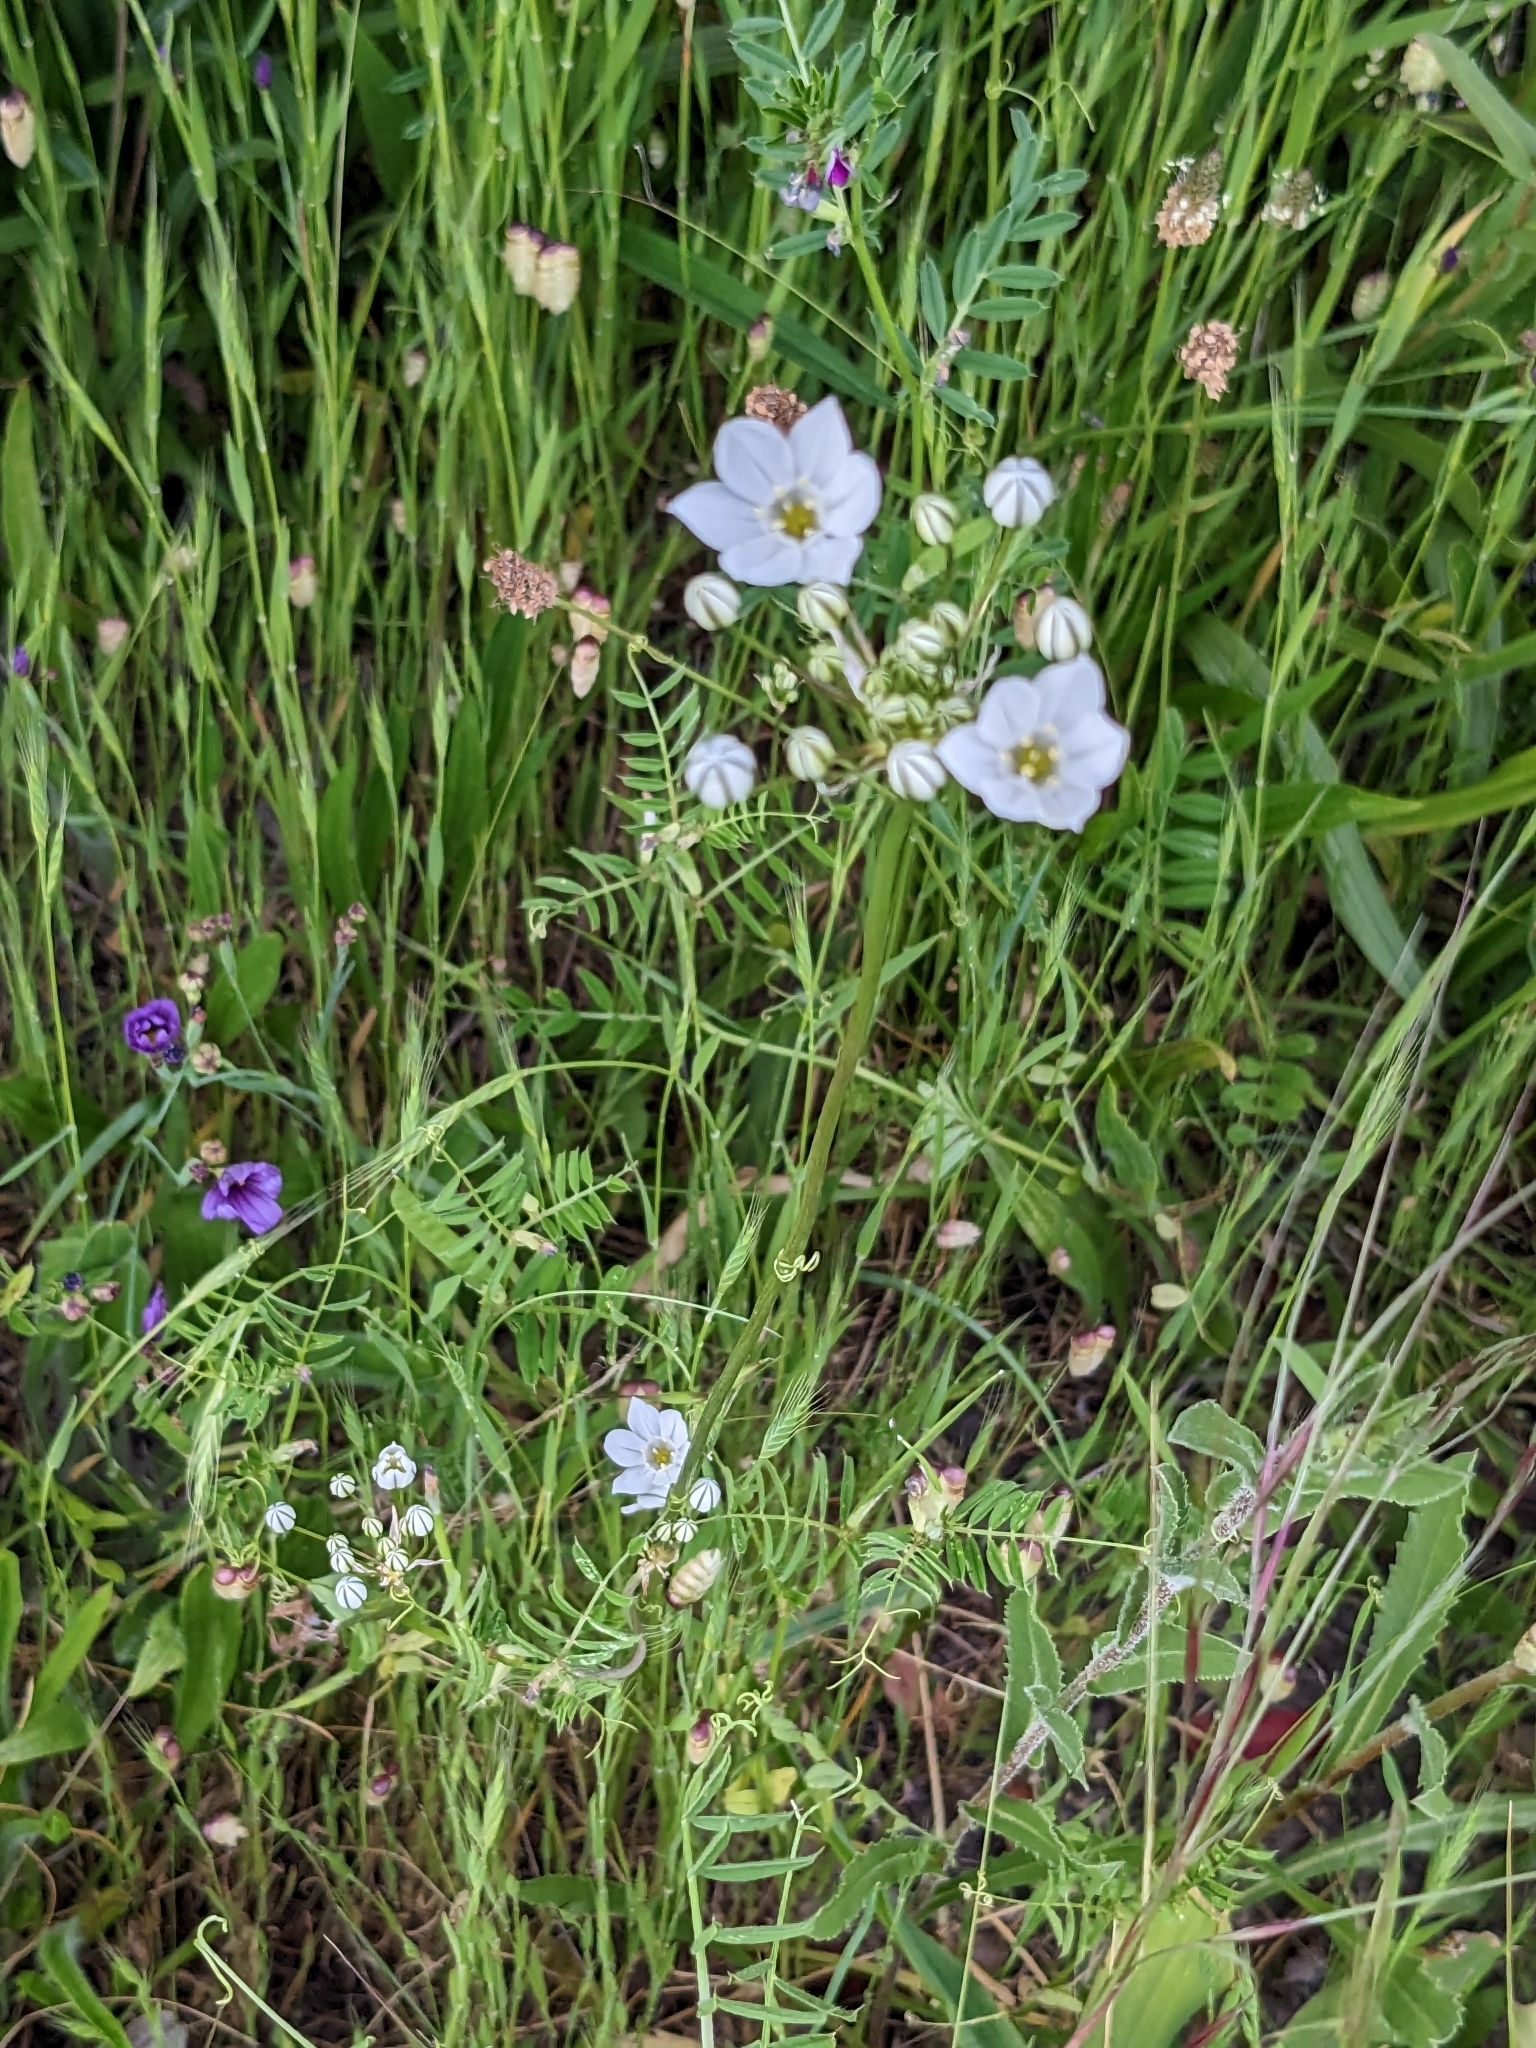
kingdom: Plantae
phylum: Tracheophyta
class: Liliopsida
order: Asparagales
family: Asparagaceae
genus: Triteleia
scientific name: Triteleia hyacinthina
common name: White brodiaea
